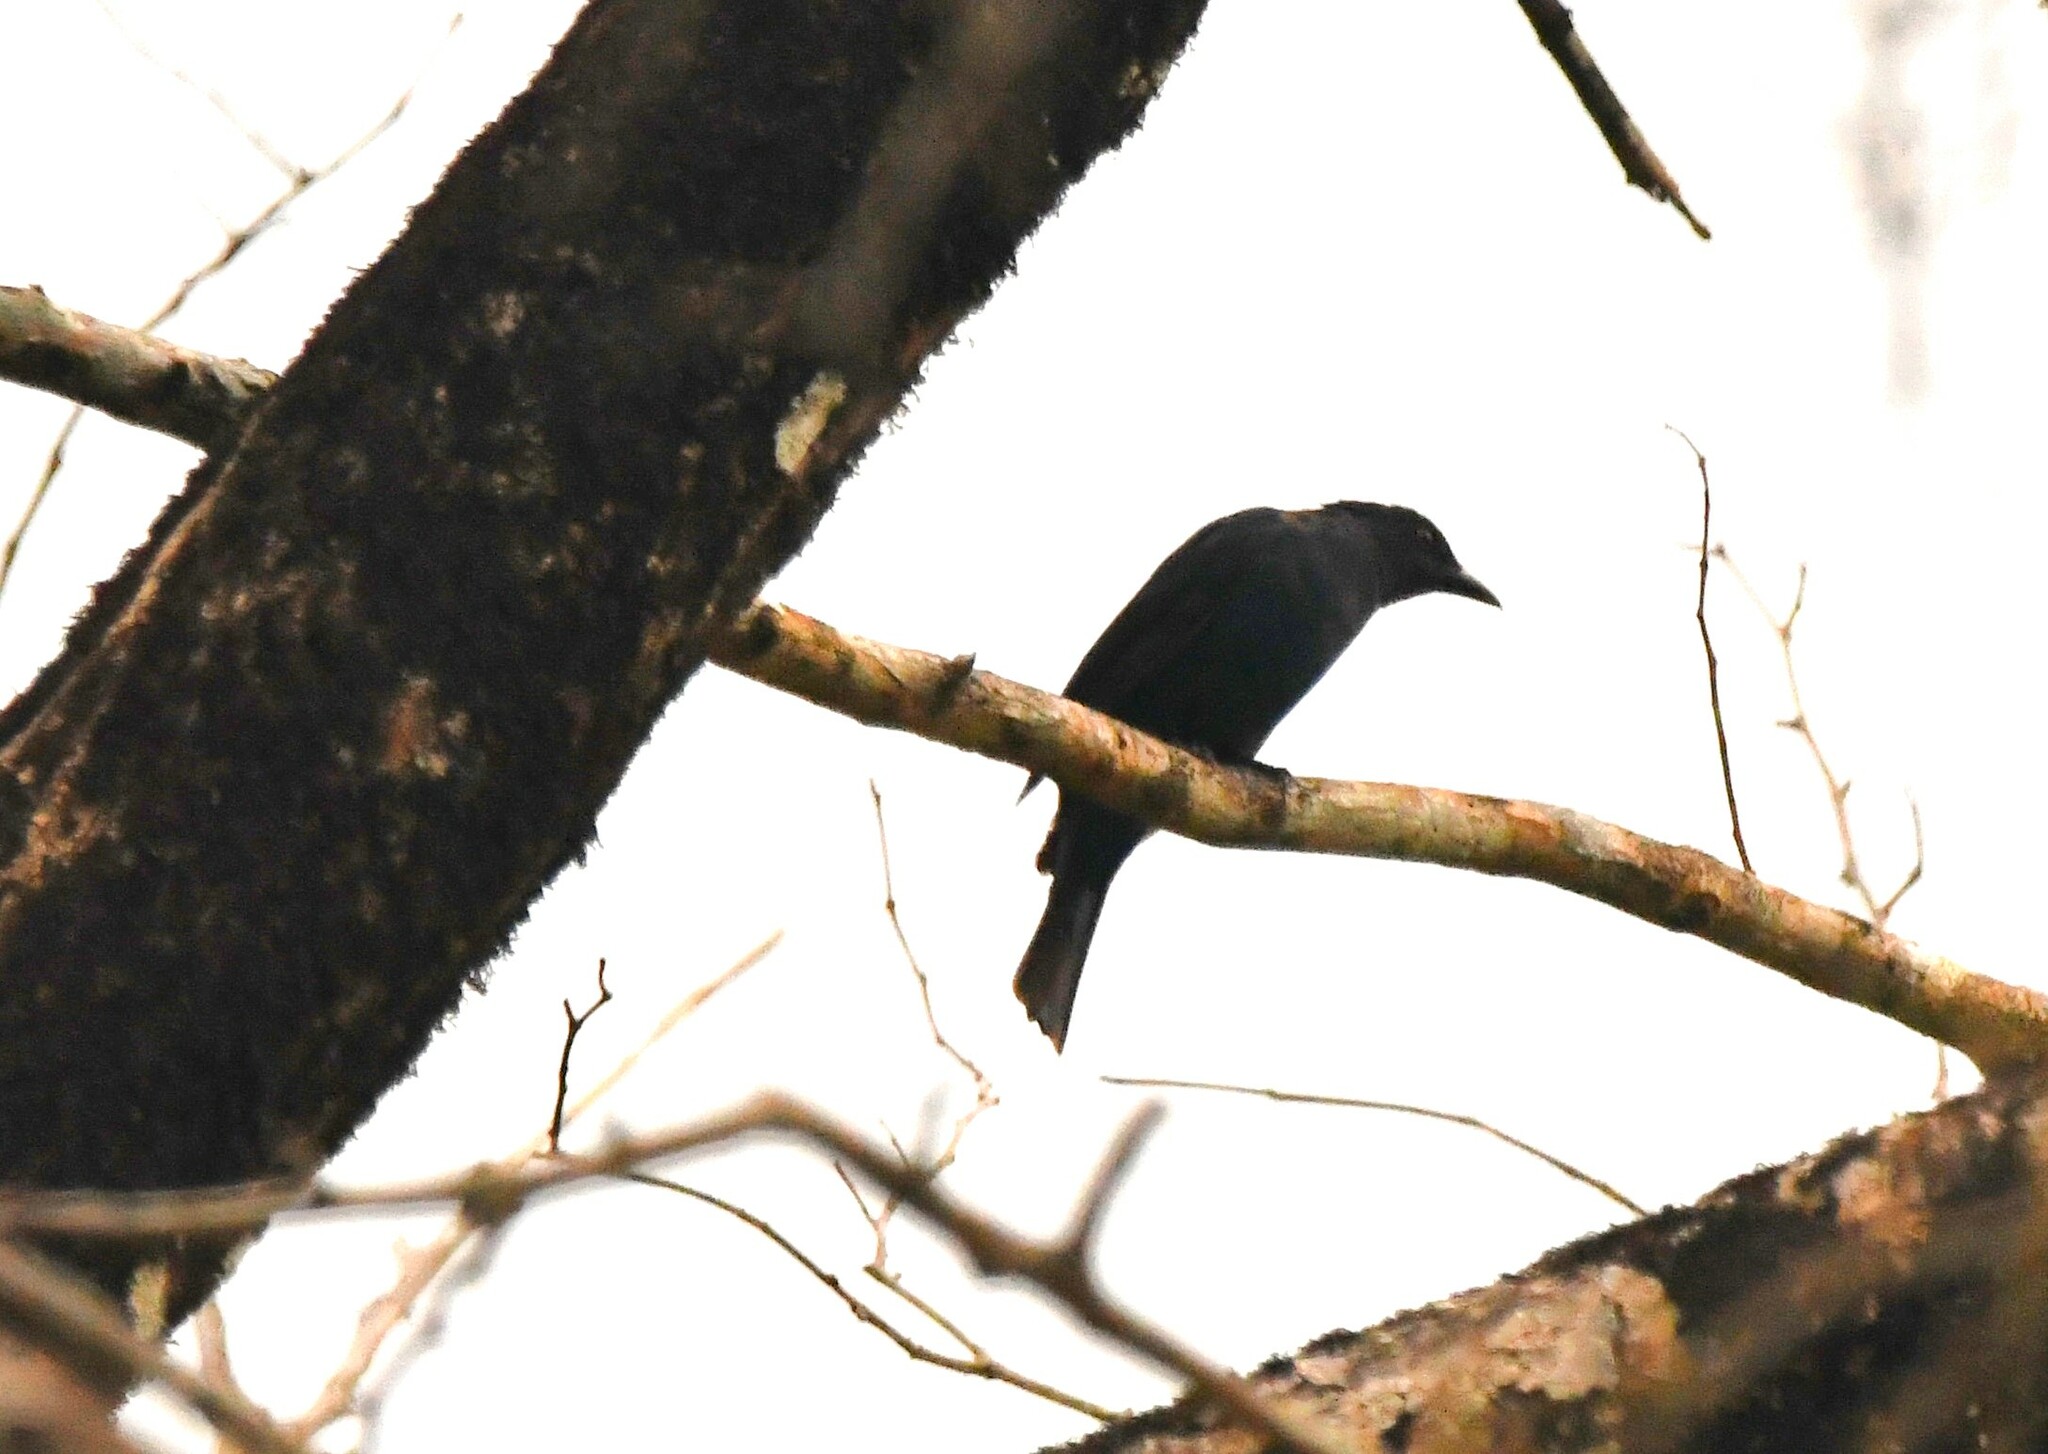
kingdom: Animalia
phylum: Chordata
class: Aves
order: Passeriformes
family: Irenidae
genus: Irena
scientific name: Irena puella
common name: Asian fairy-bluebird
